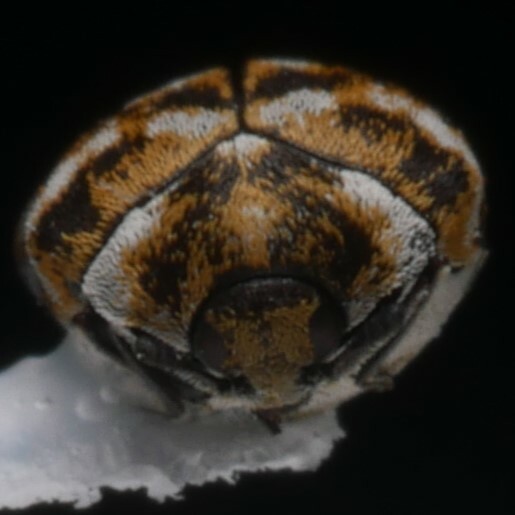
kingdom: Animalia
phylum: Arthropoda
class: Insecta
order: Coleoptera
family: Dermestidae
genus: Anthrenus
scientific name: Anthrenus verbasci
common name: Varied carpet beetle
